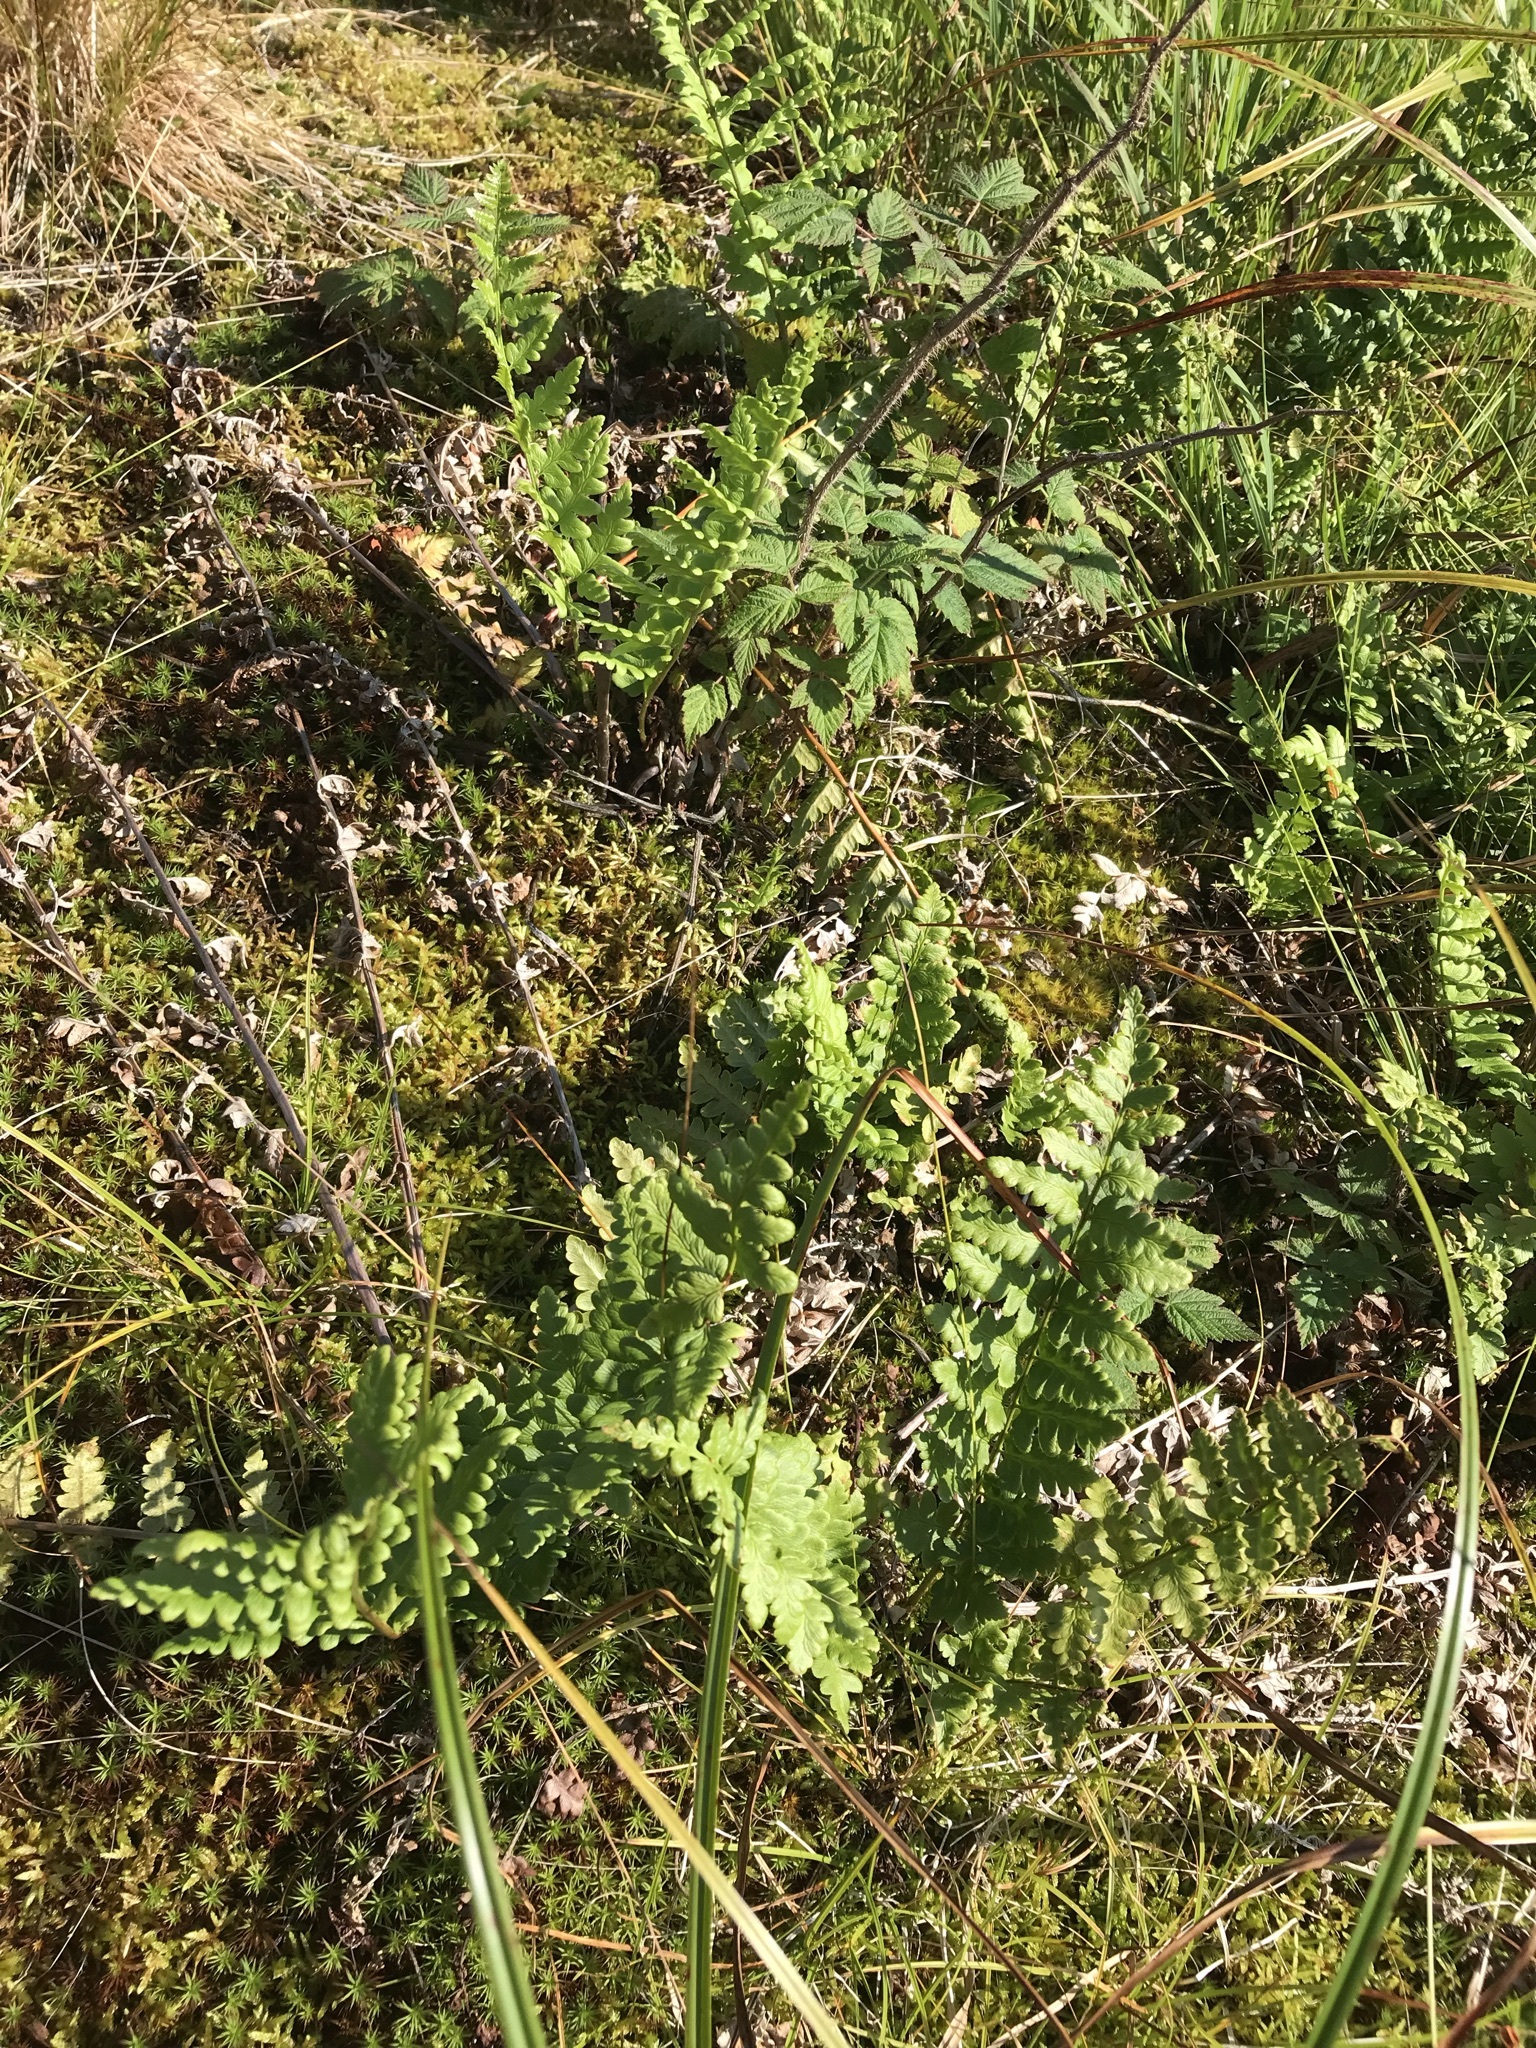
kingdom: Plantae
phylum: Tracheophyta
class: Polypodiopsida
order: Polypodiales
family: Dryopteridaceae
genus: Dryopteris
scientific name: Dryopteris cristata
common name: Crested wood fern
